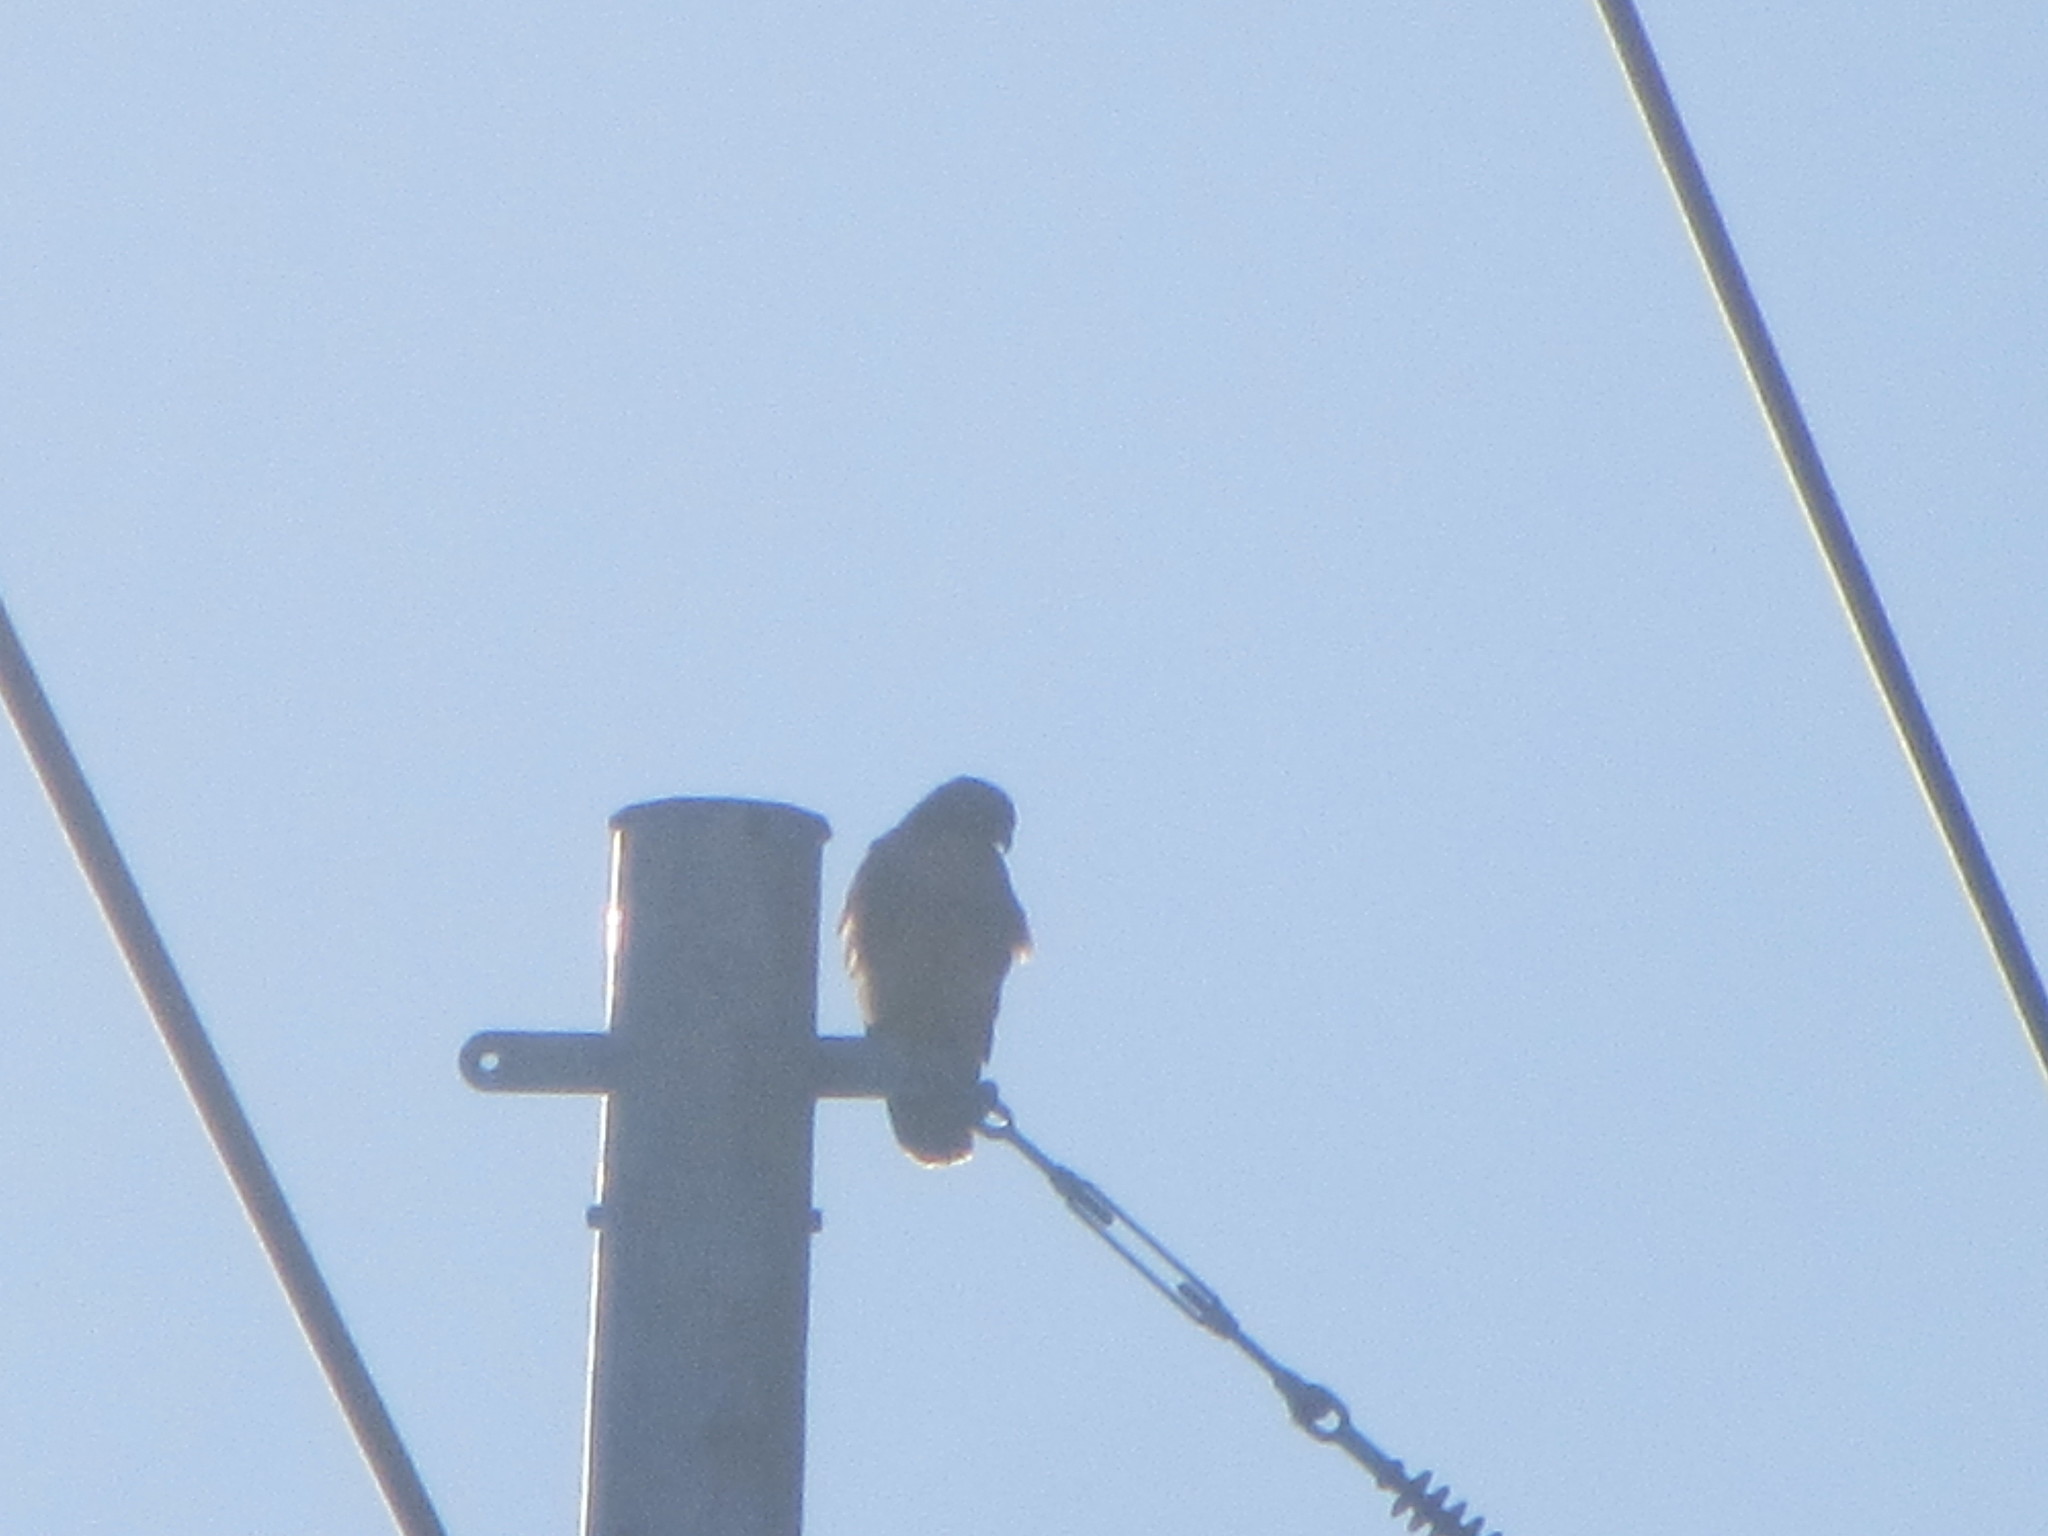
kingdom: Animalia
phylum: Chordata
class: Aves
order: Accipitriformes
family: Accipitridae
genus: Buteo
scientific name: Buteo jamaicensis
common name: Red-tailed hawk
